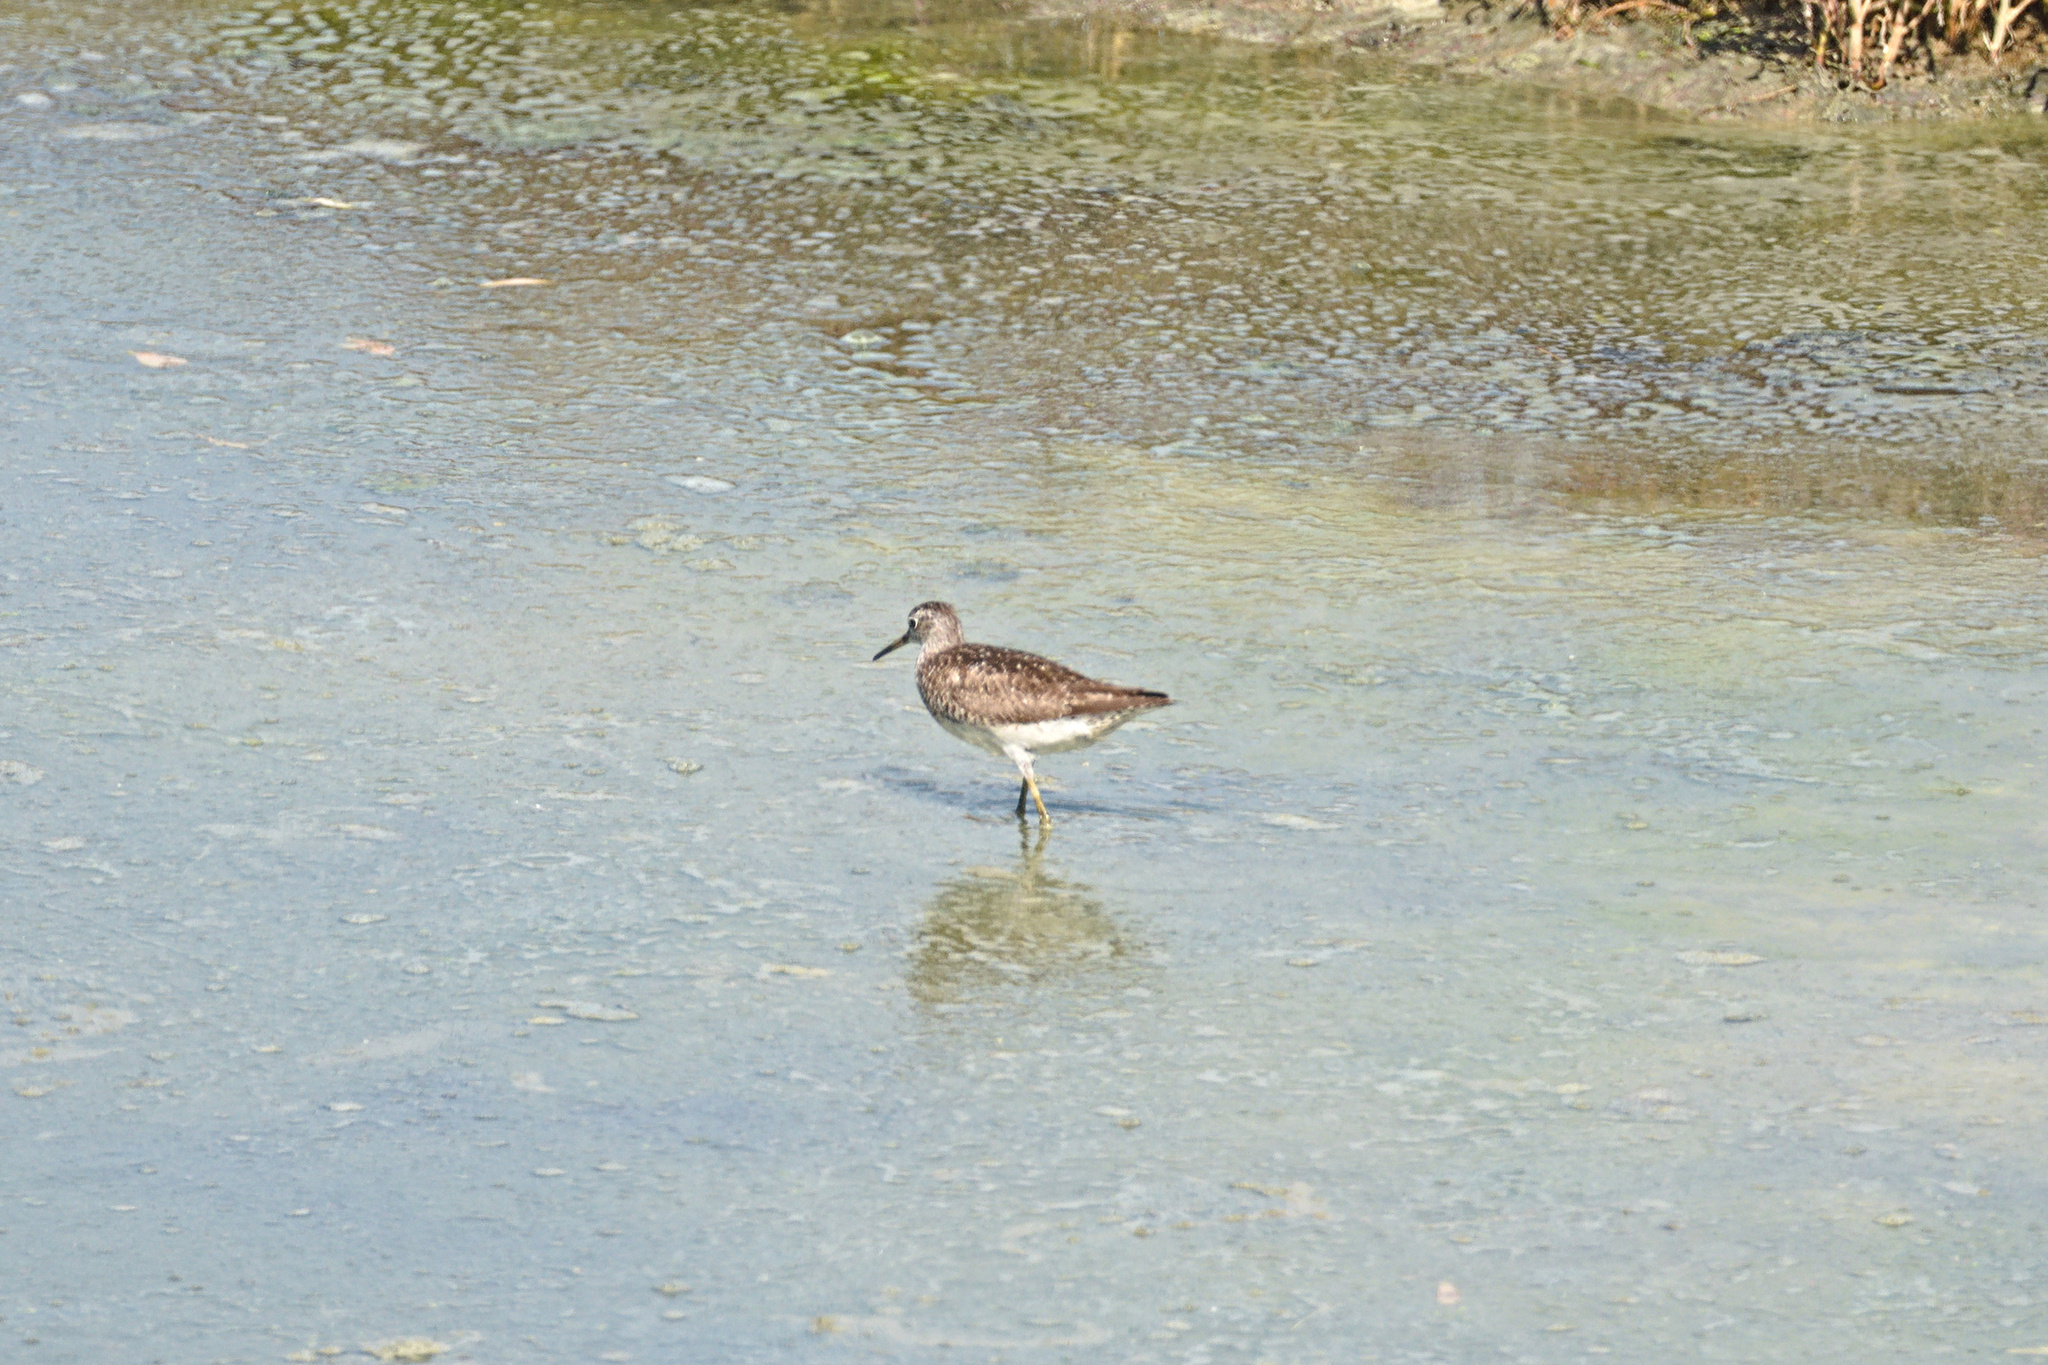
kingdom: Animalia
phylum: Chordata
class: Aves
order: Charadriiformes
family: Scolopacidae
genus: Tringa
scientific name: Tringa glareola
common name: Wood sandpiper
